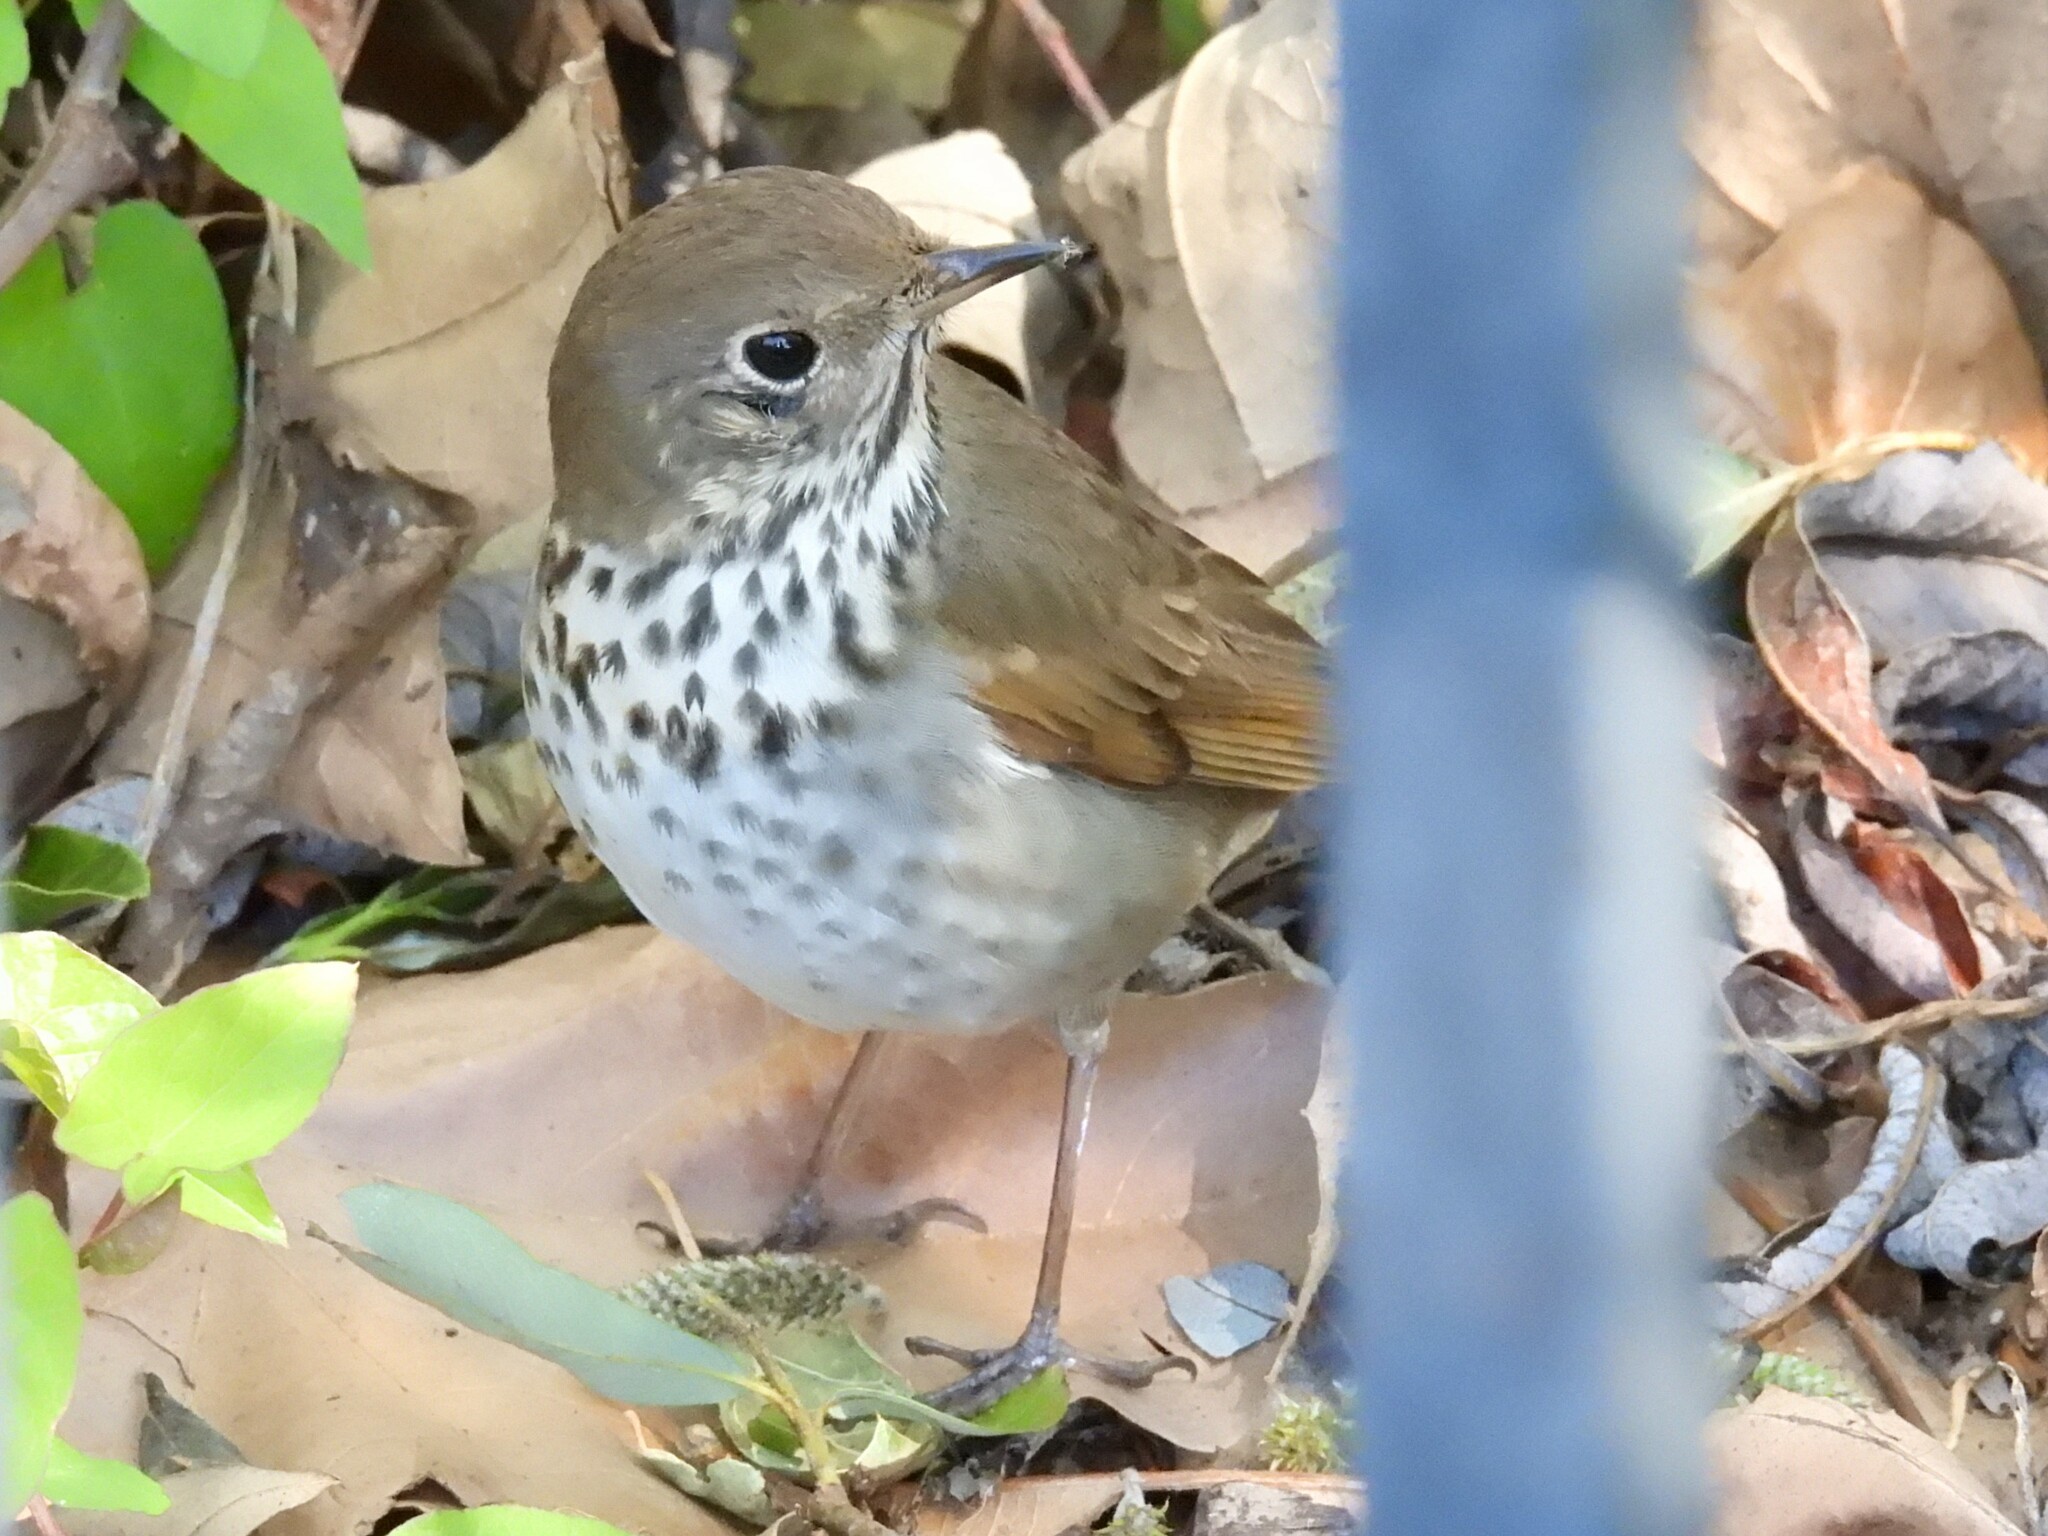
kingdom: Animalia
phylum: Chordata
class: Aves
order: Passeriformes
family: Turdidae
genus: Catharus
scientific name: Catharus guttatus
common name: Hermit thrush
